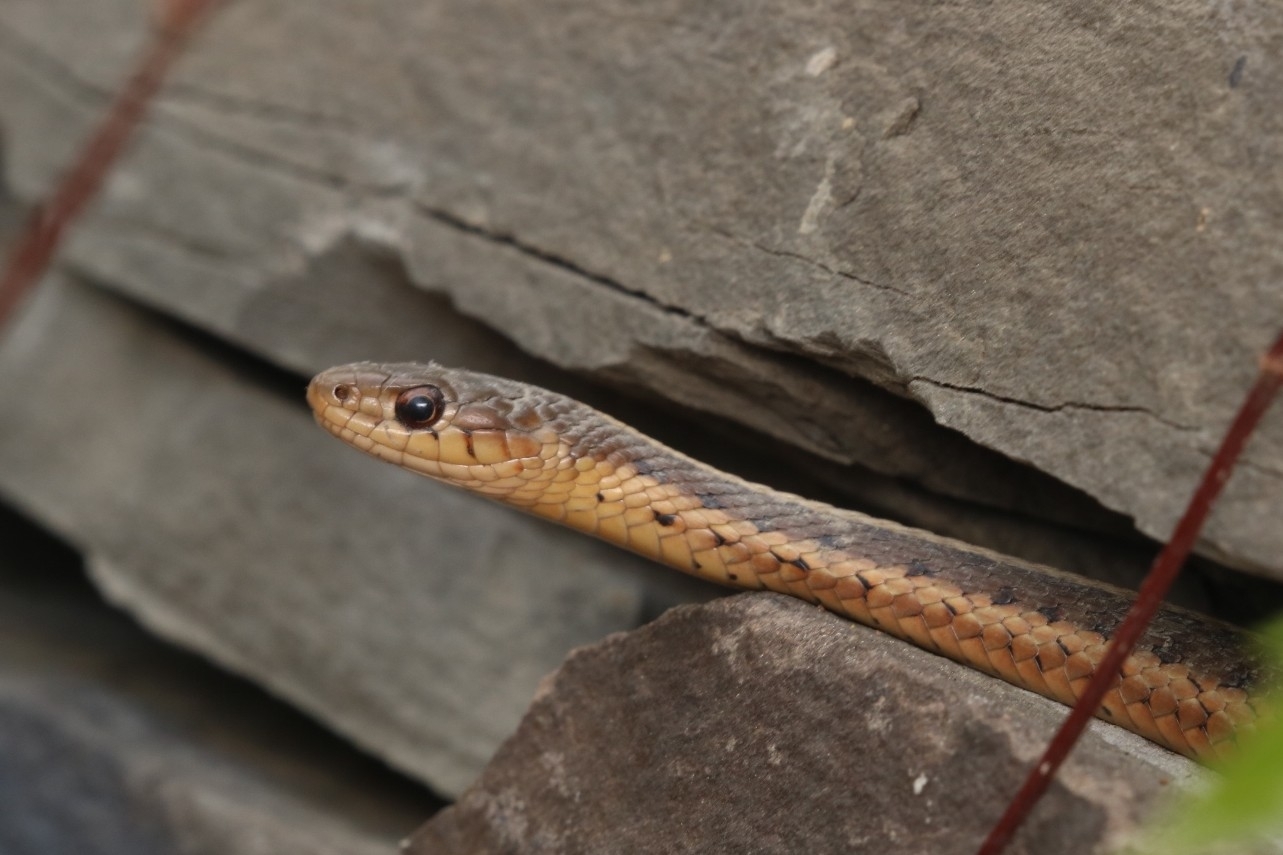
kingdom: Animalia
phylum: Chordata
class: Squamata
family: Colubridae
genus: Thamnophis
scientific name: Thamnophis sirtalis
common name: Common garter snake
